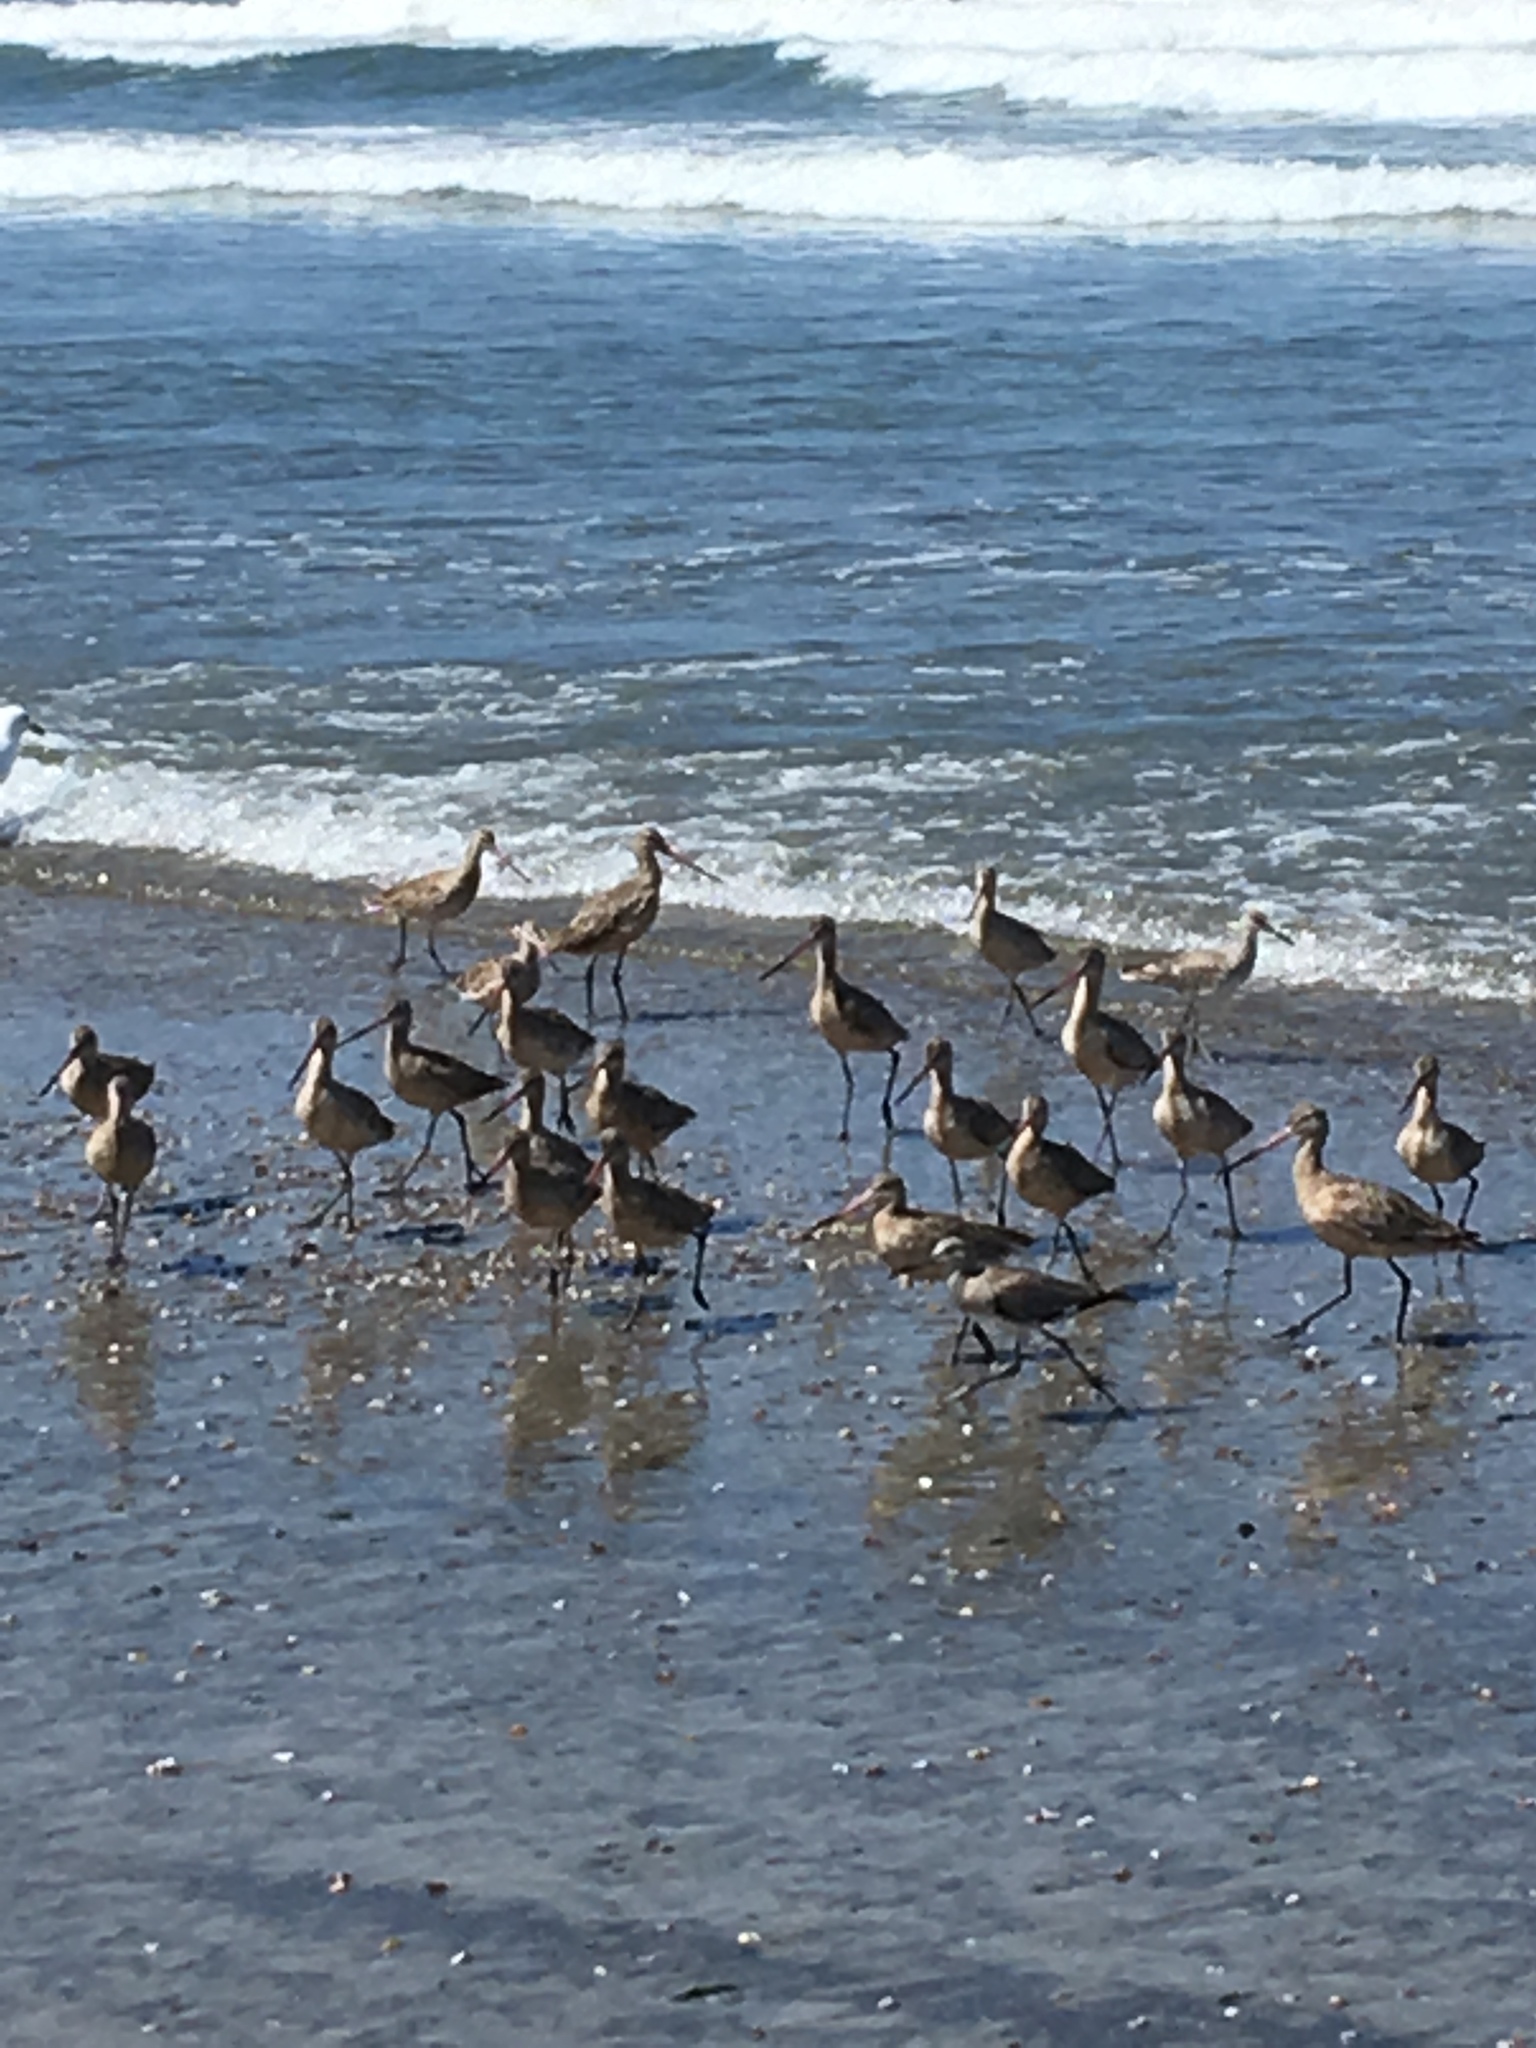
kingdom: Animalia
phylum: Chordata
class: Aves
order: Charadriiformes
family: Scolopacidae
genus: Limosa
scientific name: Limosa fedoa
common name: Marbled godwit
